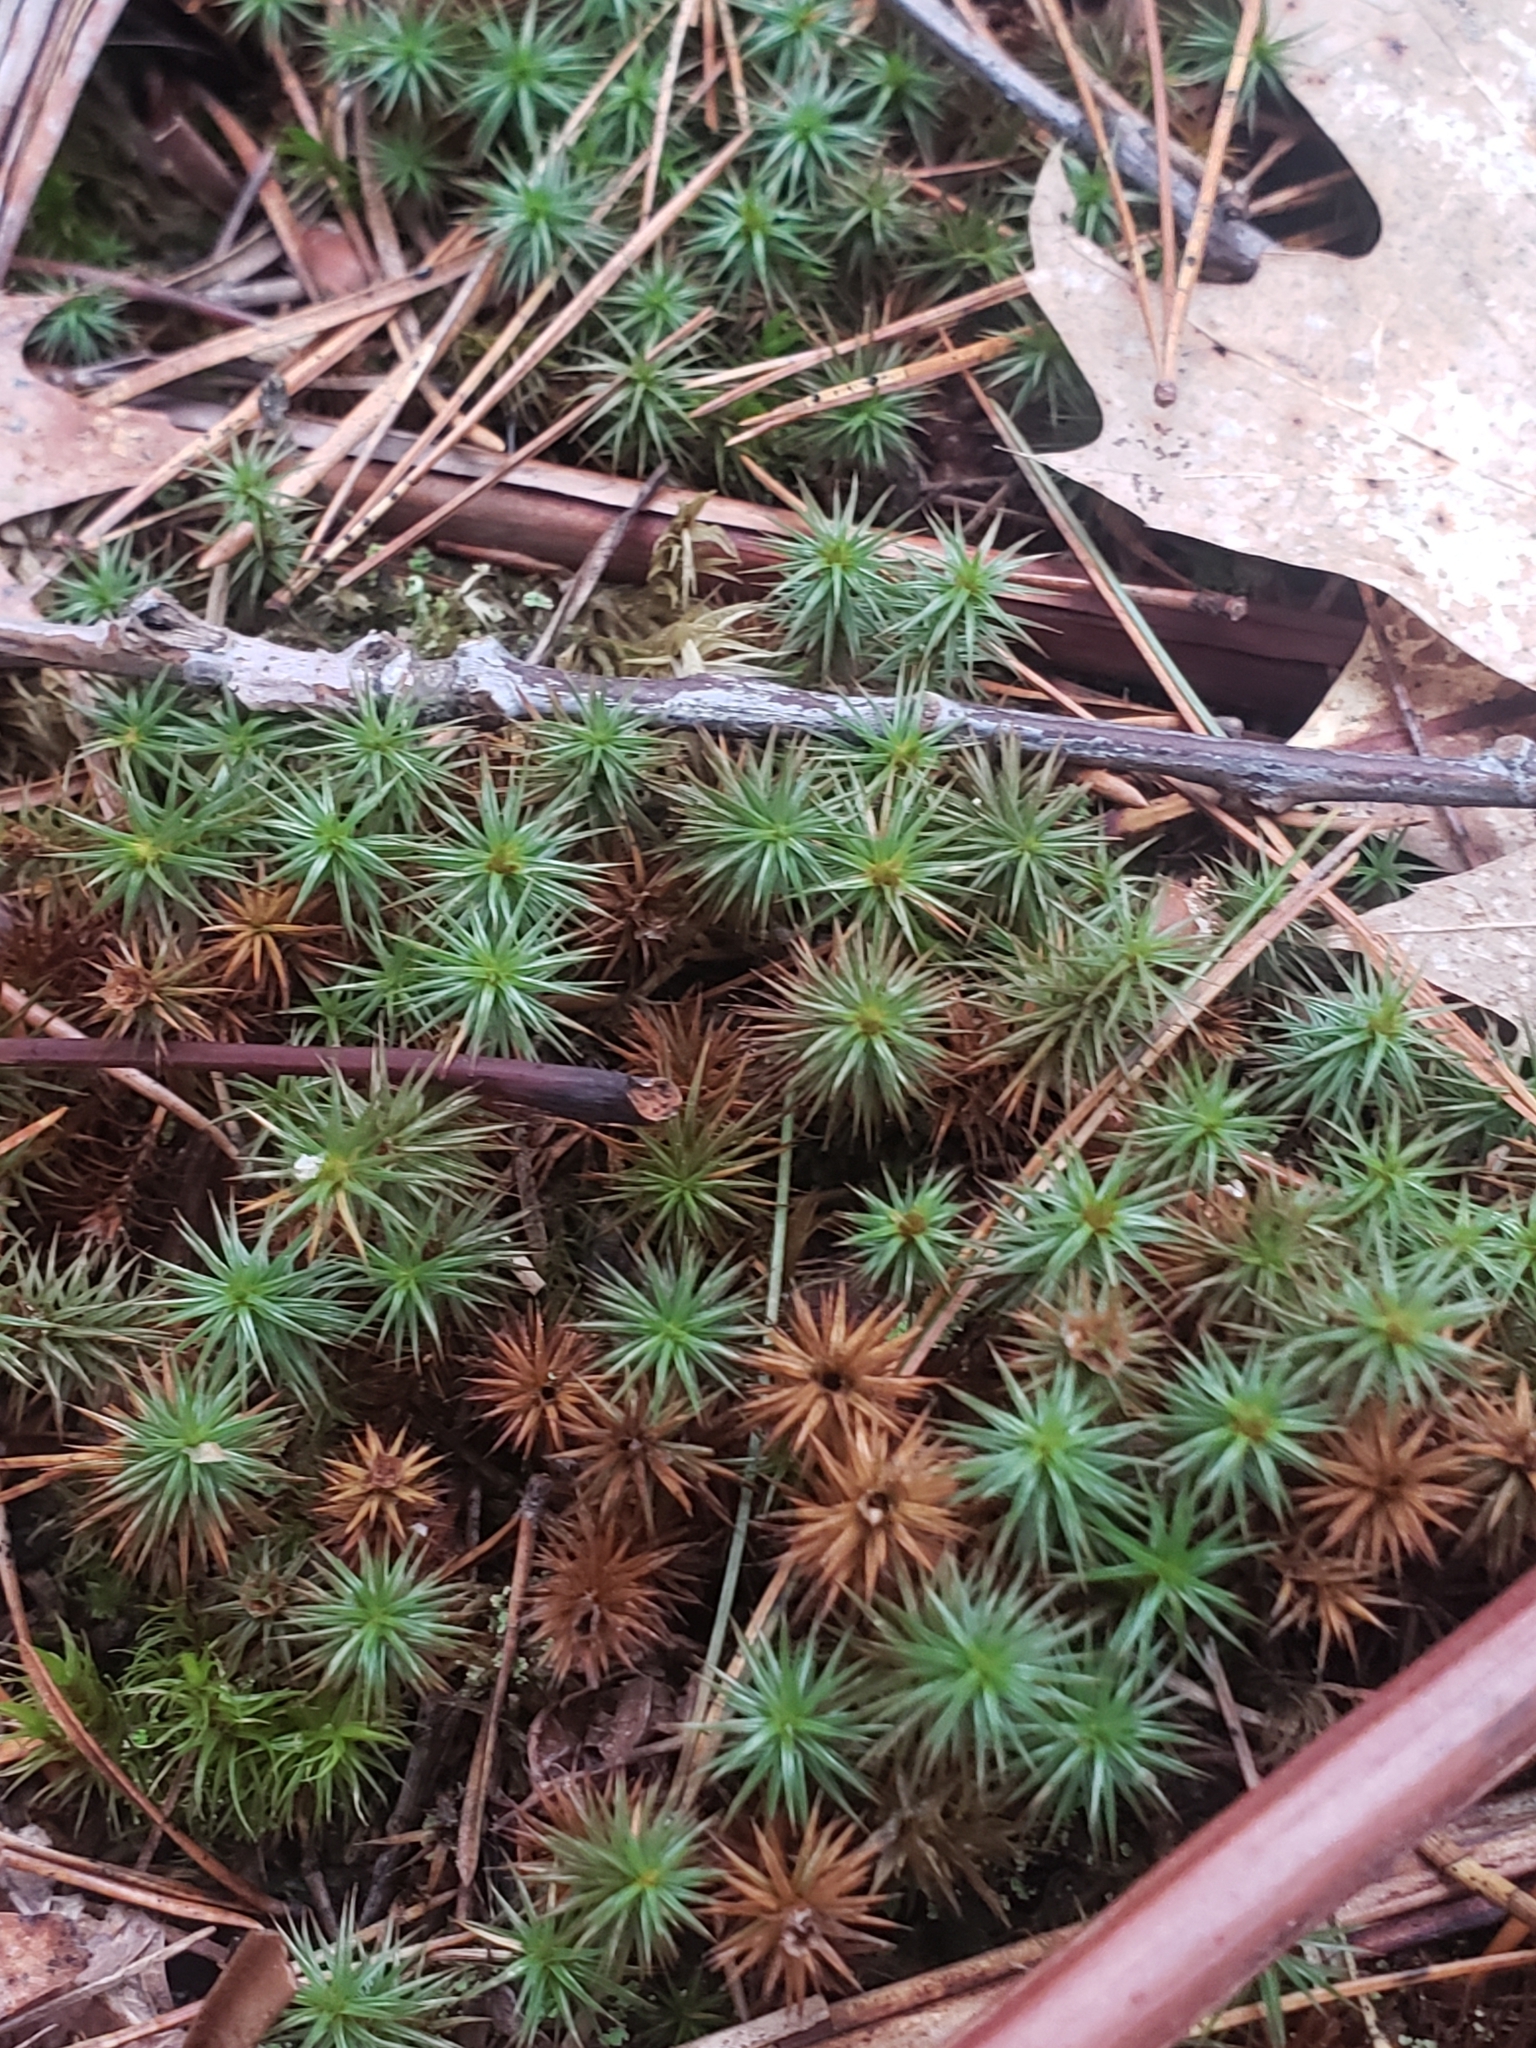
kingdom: Plantae
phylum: Bryophyta
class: Polytrichopsida
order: Polytrichales
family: Polytrichaceae
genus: Polytrichum
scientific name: Polytrichum juniperinum
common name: Juniper haircap moss
